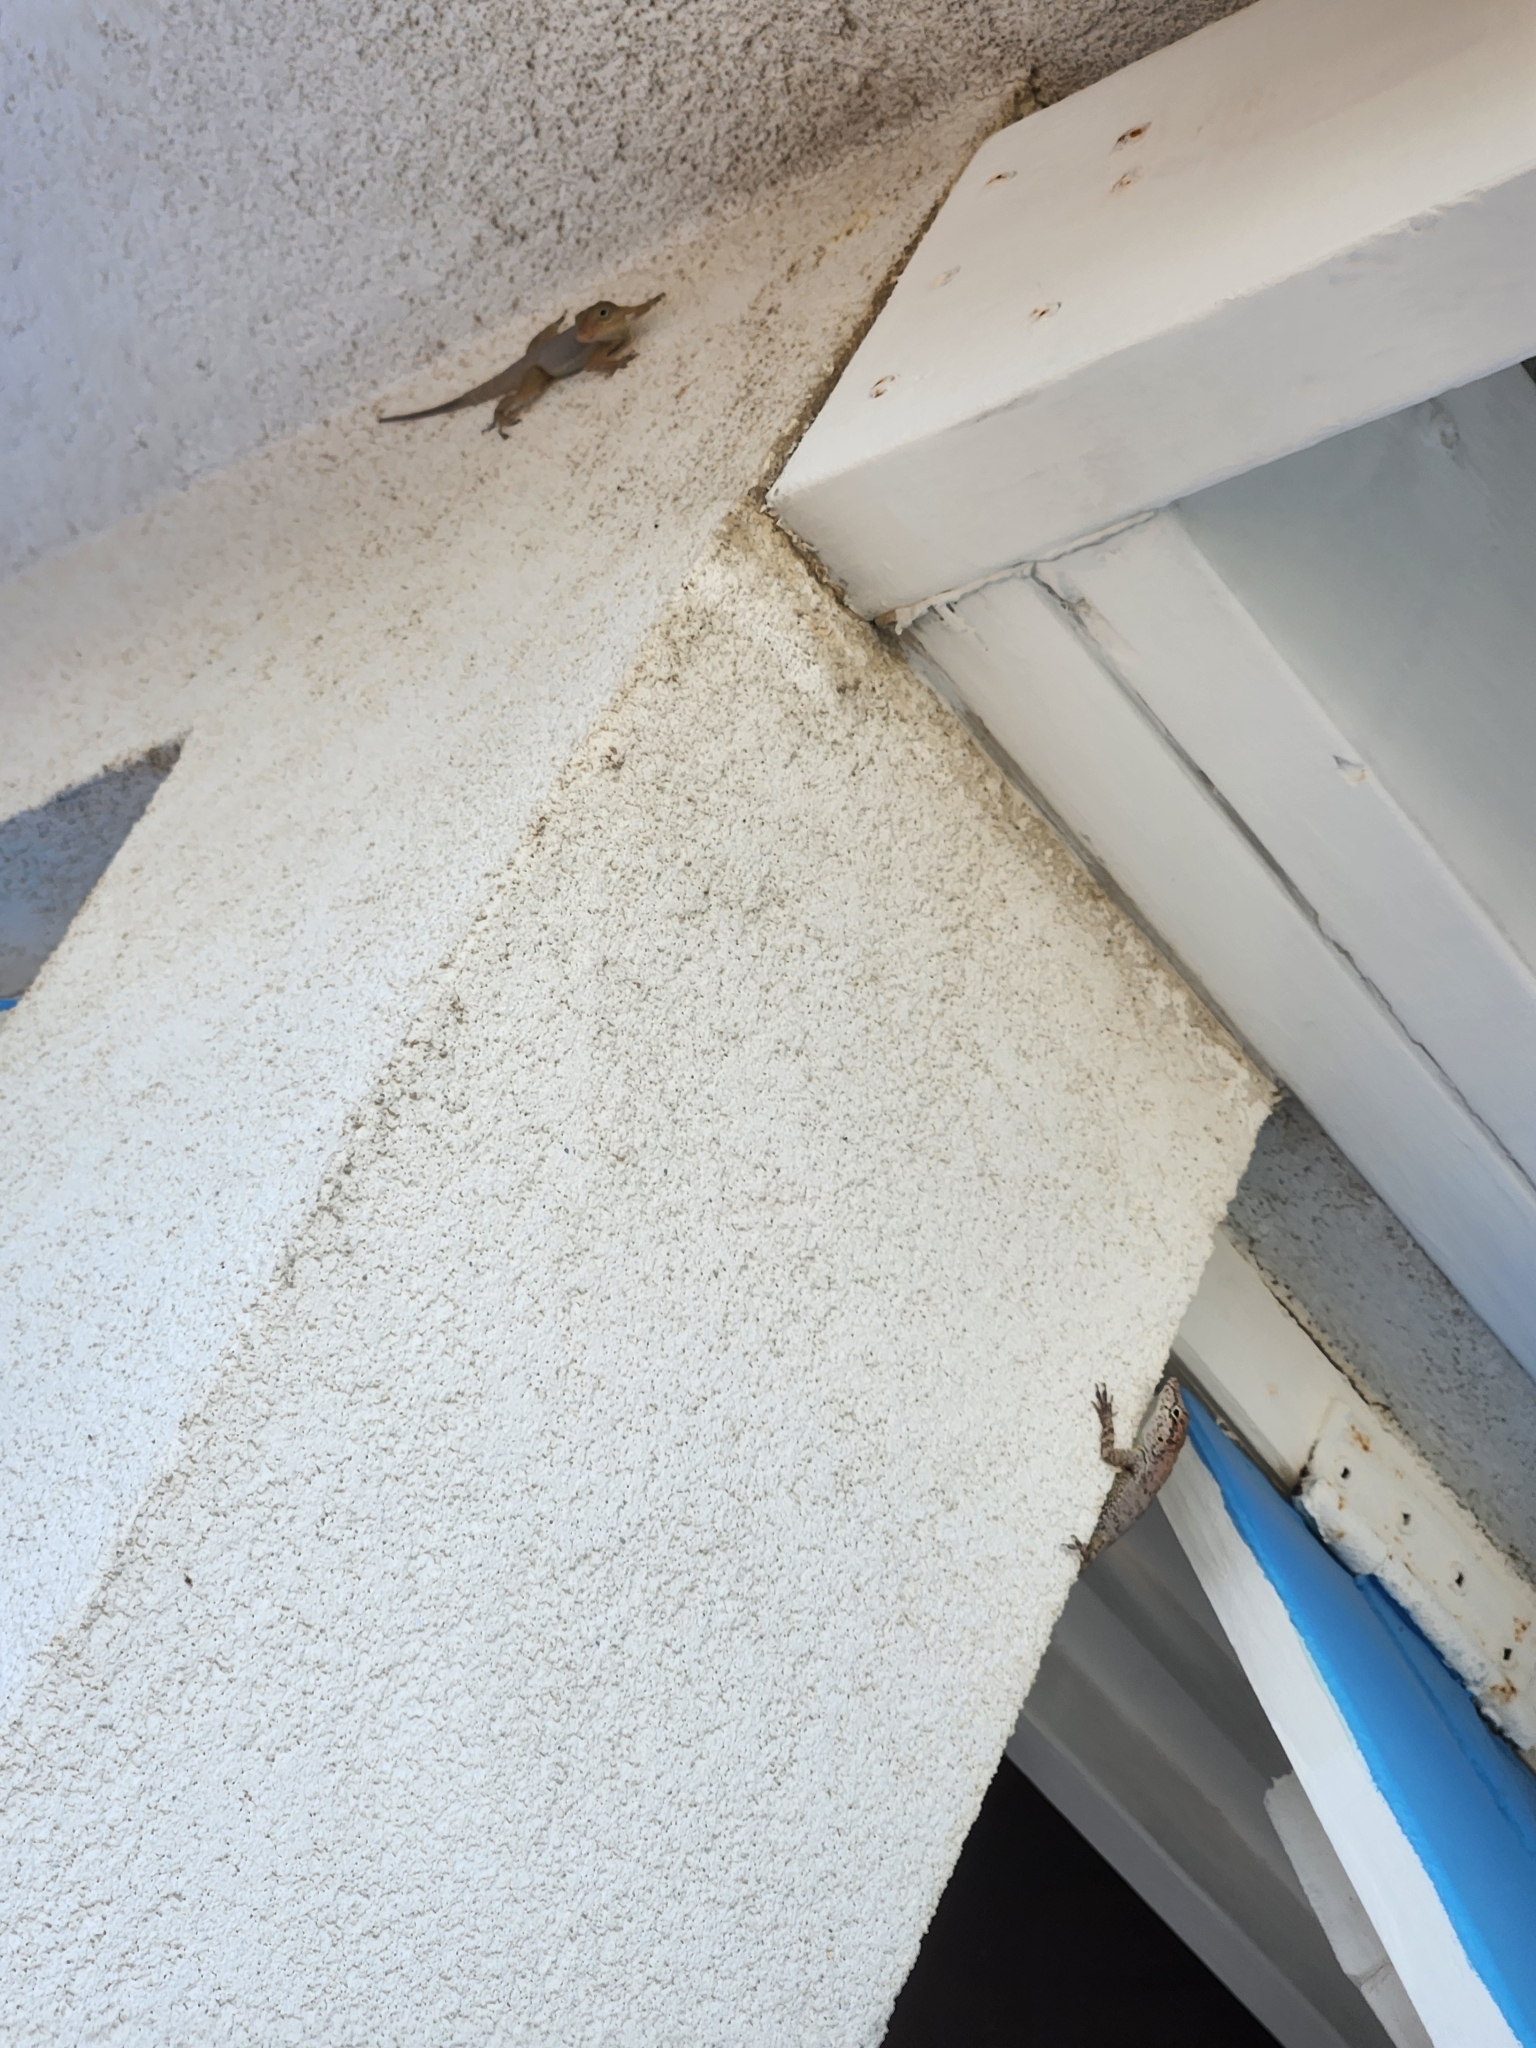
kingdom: Animalia
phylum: Chordata
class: Squamata
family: Dactyloidae
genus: Anolis
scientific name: Anolis scriptus
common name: Silver key anole
